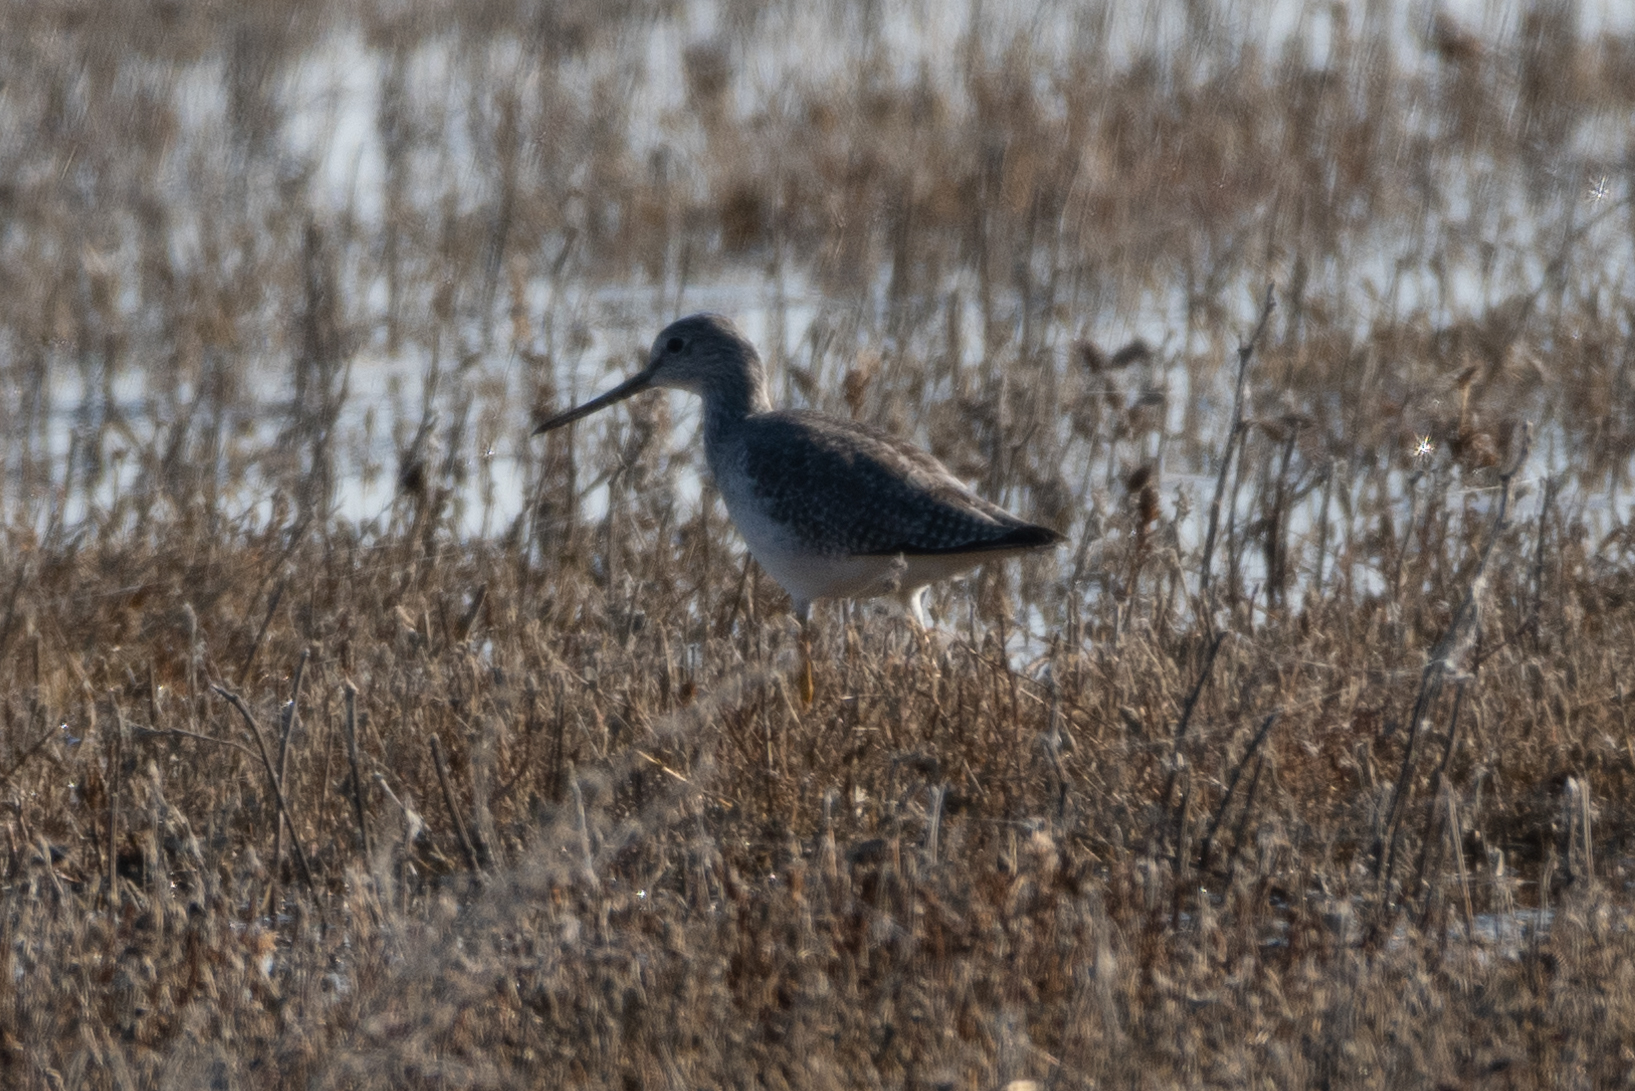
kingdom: Animalia
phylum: Chordata
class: Aves
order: Charadriiformes
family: Scolopacidae
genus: Tringa
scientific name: Tringa melanoleuca
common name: Greater yellowlegs
